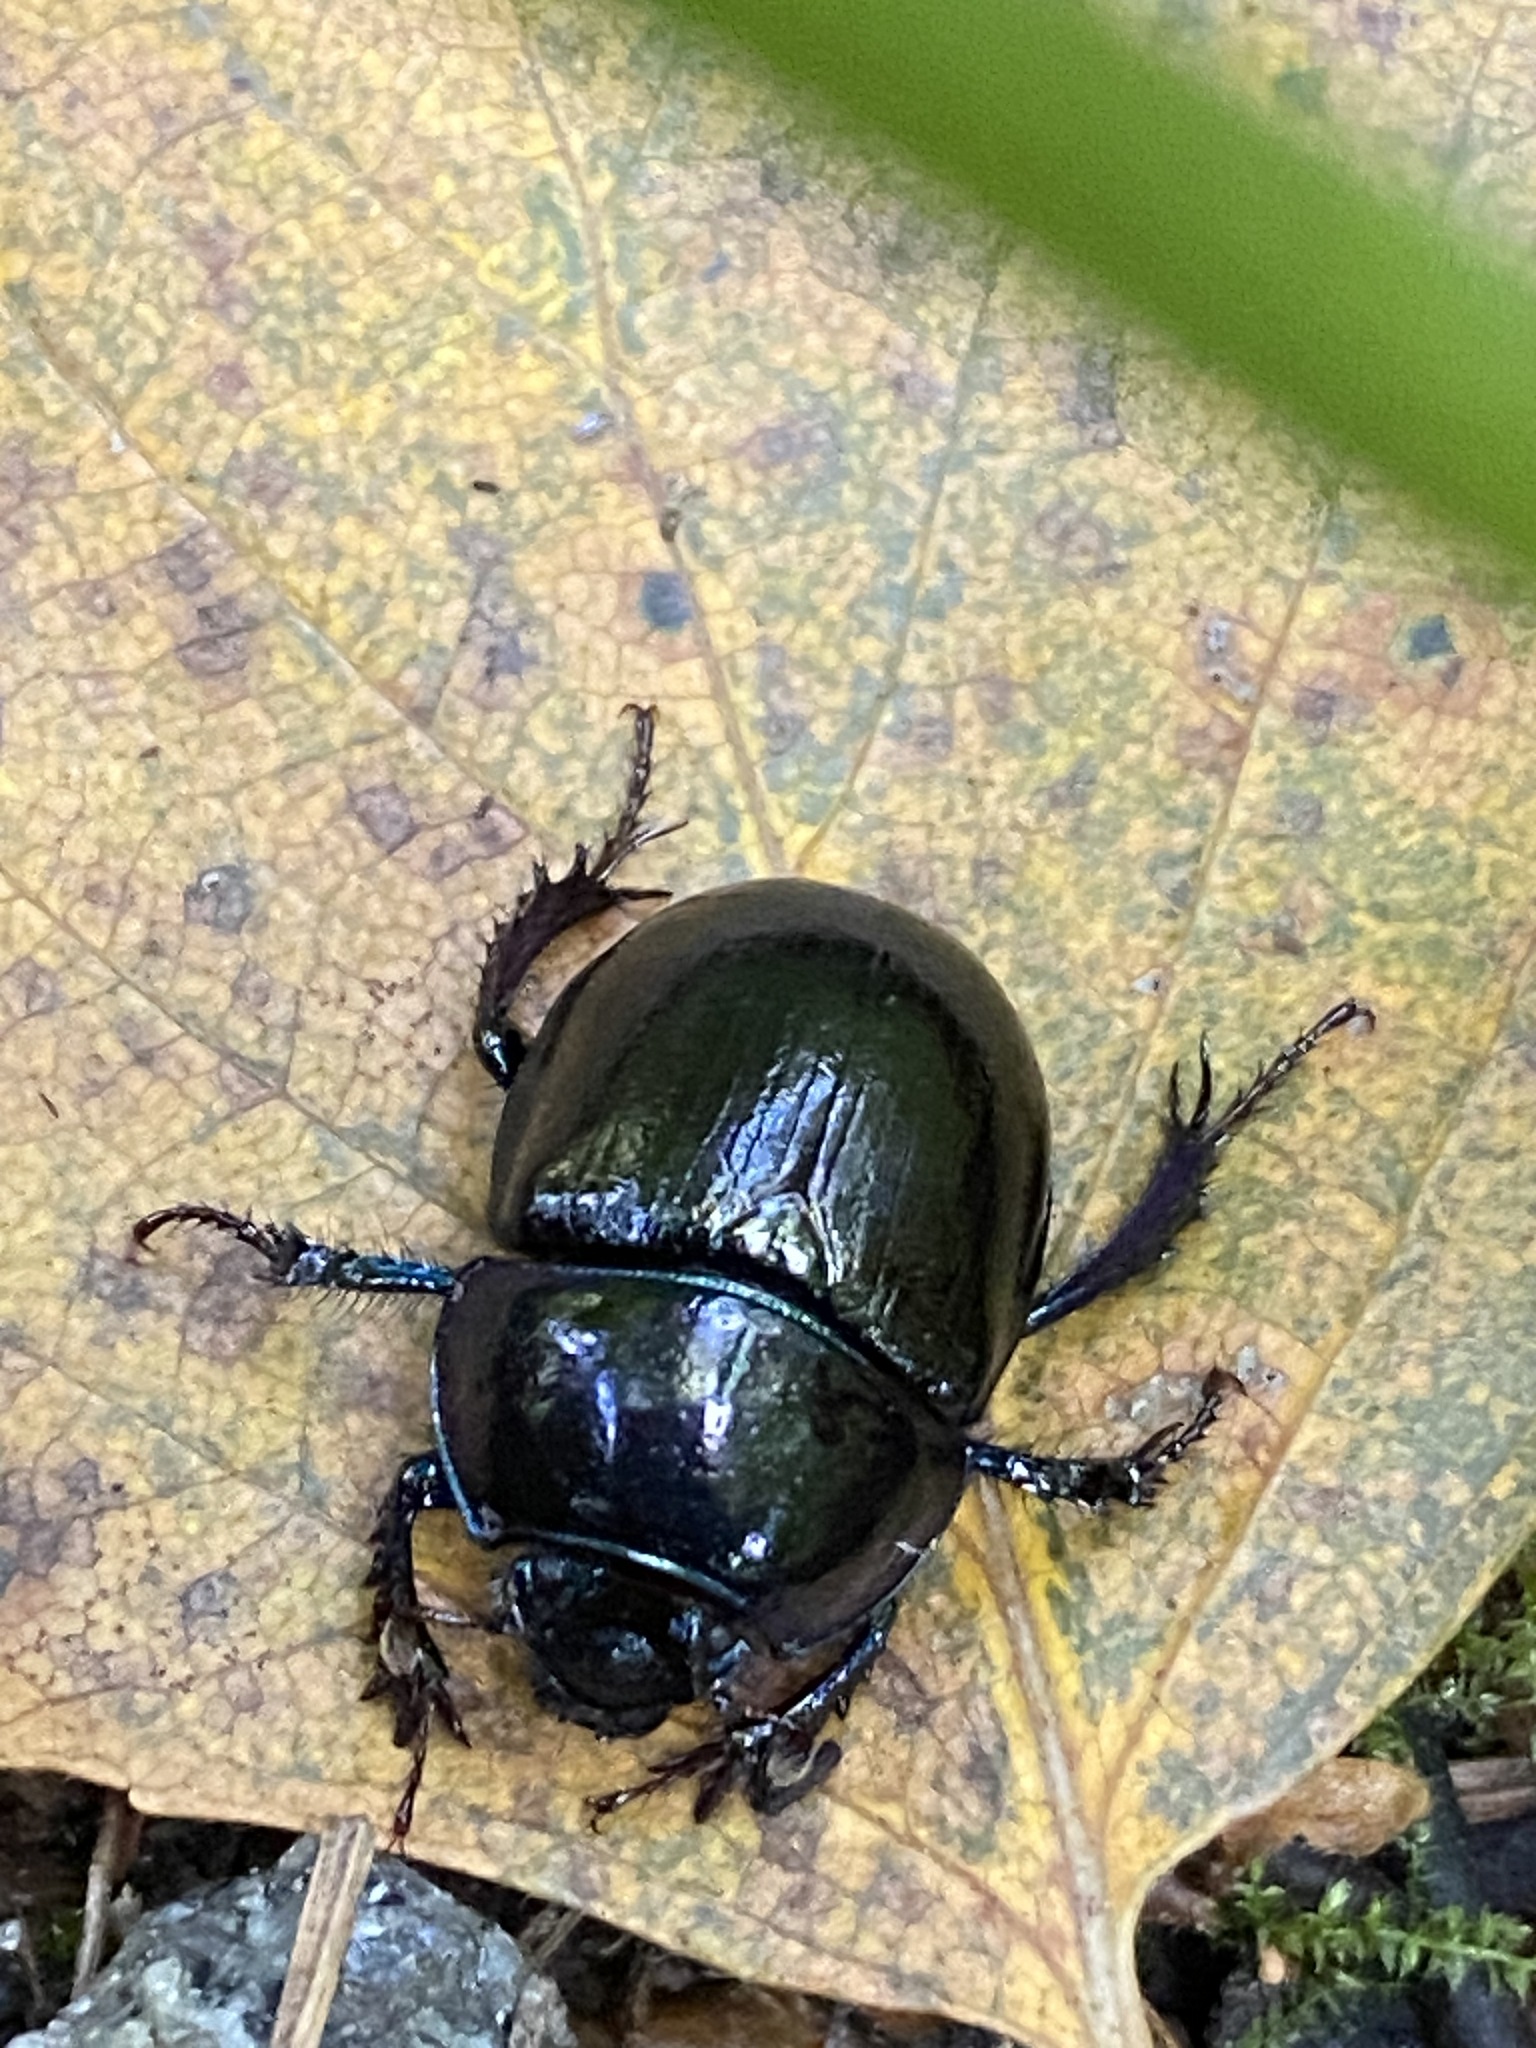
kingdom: Animalia
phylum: Arthropoda
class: Insecta
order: Coleoptera
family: Geotrupidae
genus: Anoplotrupes
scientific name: Anoplotrupes stercorosus
